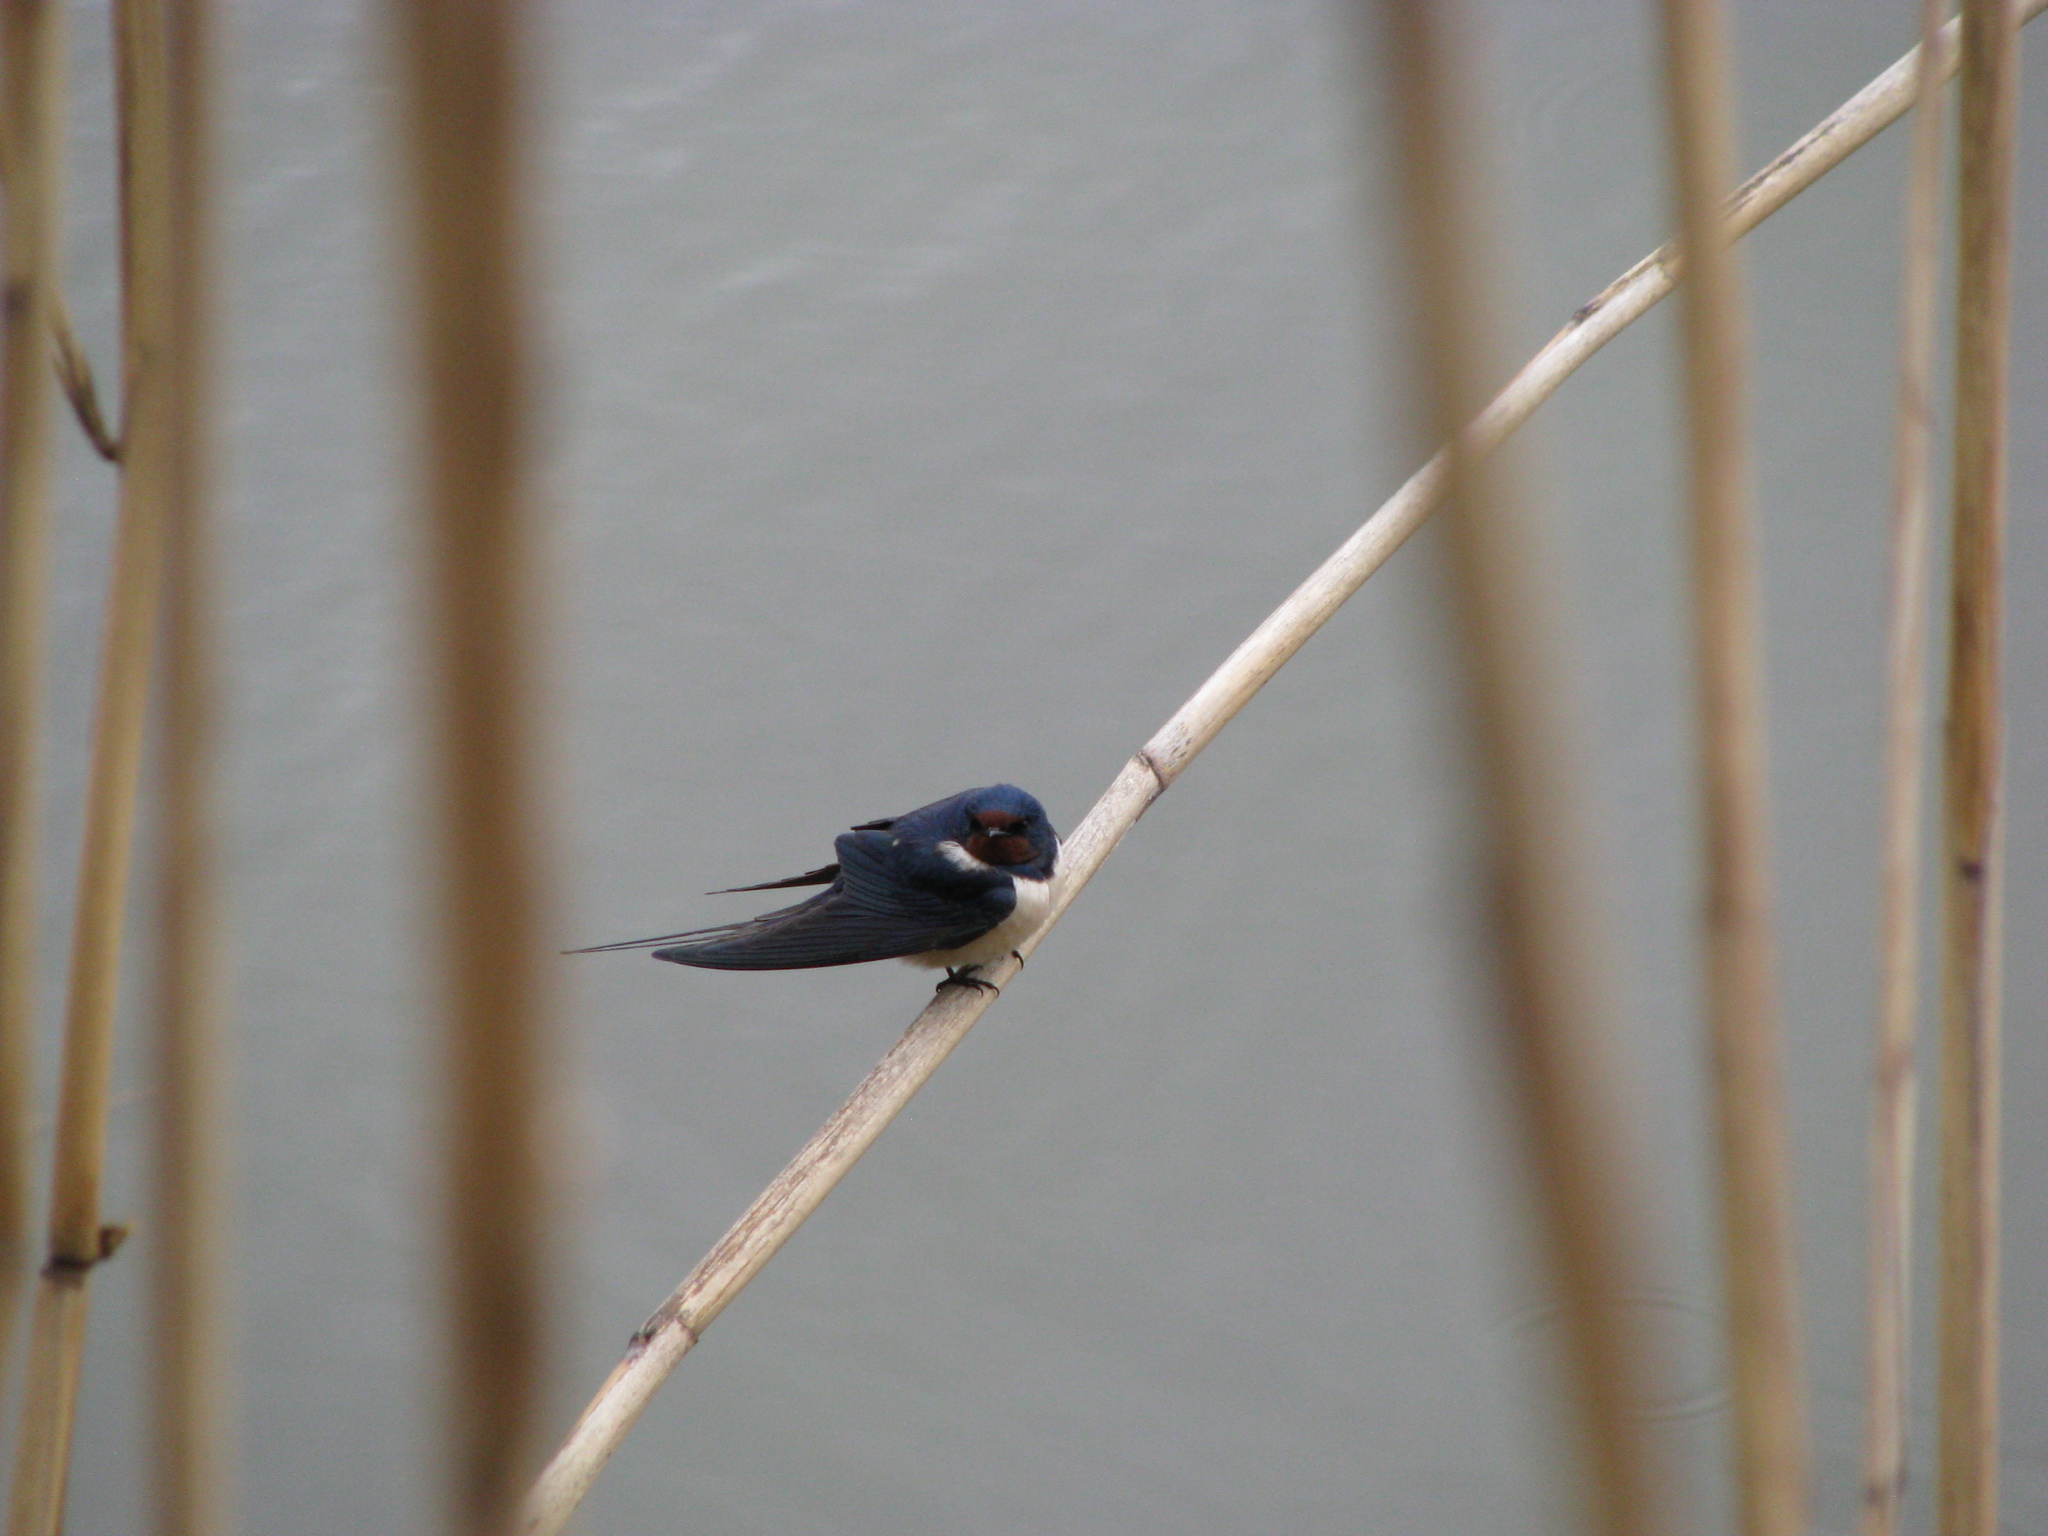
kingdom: Animalia
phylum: Chordata
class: Aves
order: Passeriformes
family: Hirundinidae
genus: Hirundo
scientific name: Hirundo rustica
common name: Barn swallow
